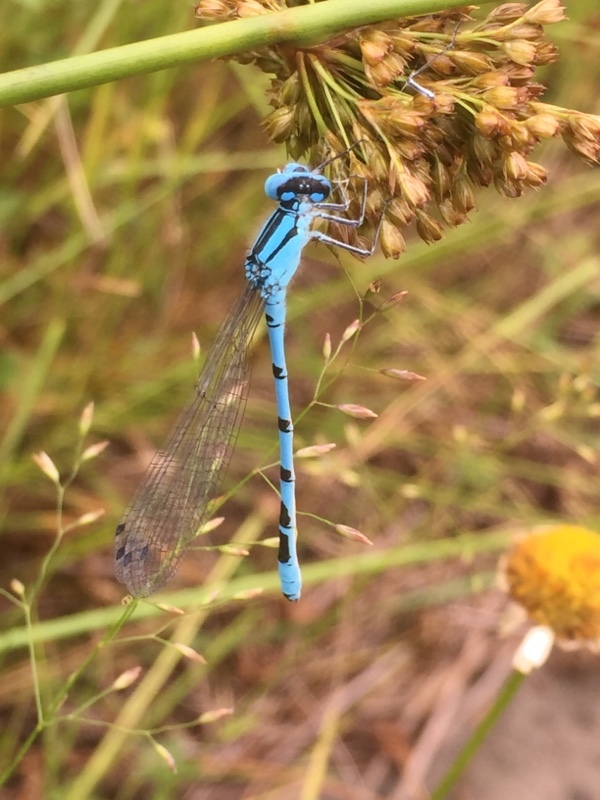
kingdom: Animalia
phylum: Arthropoda
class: Insecta
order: Odonata
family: Coenagrionidae
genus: Enallagma
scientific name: Enallagma cyathigerum
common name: Common blue damselfly
